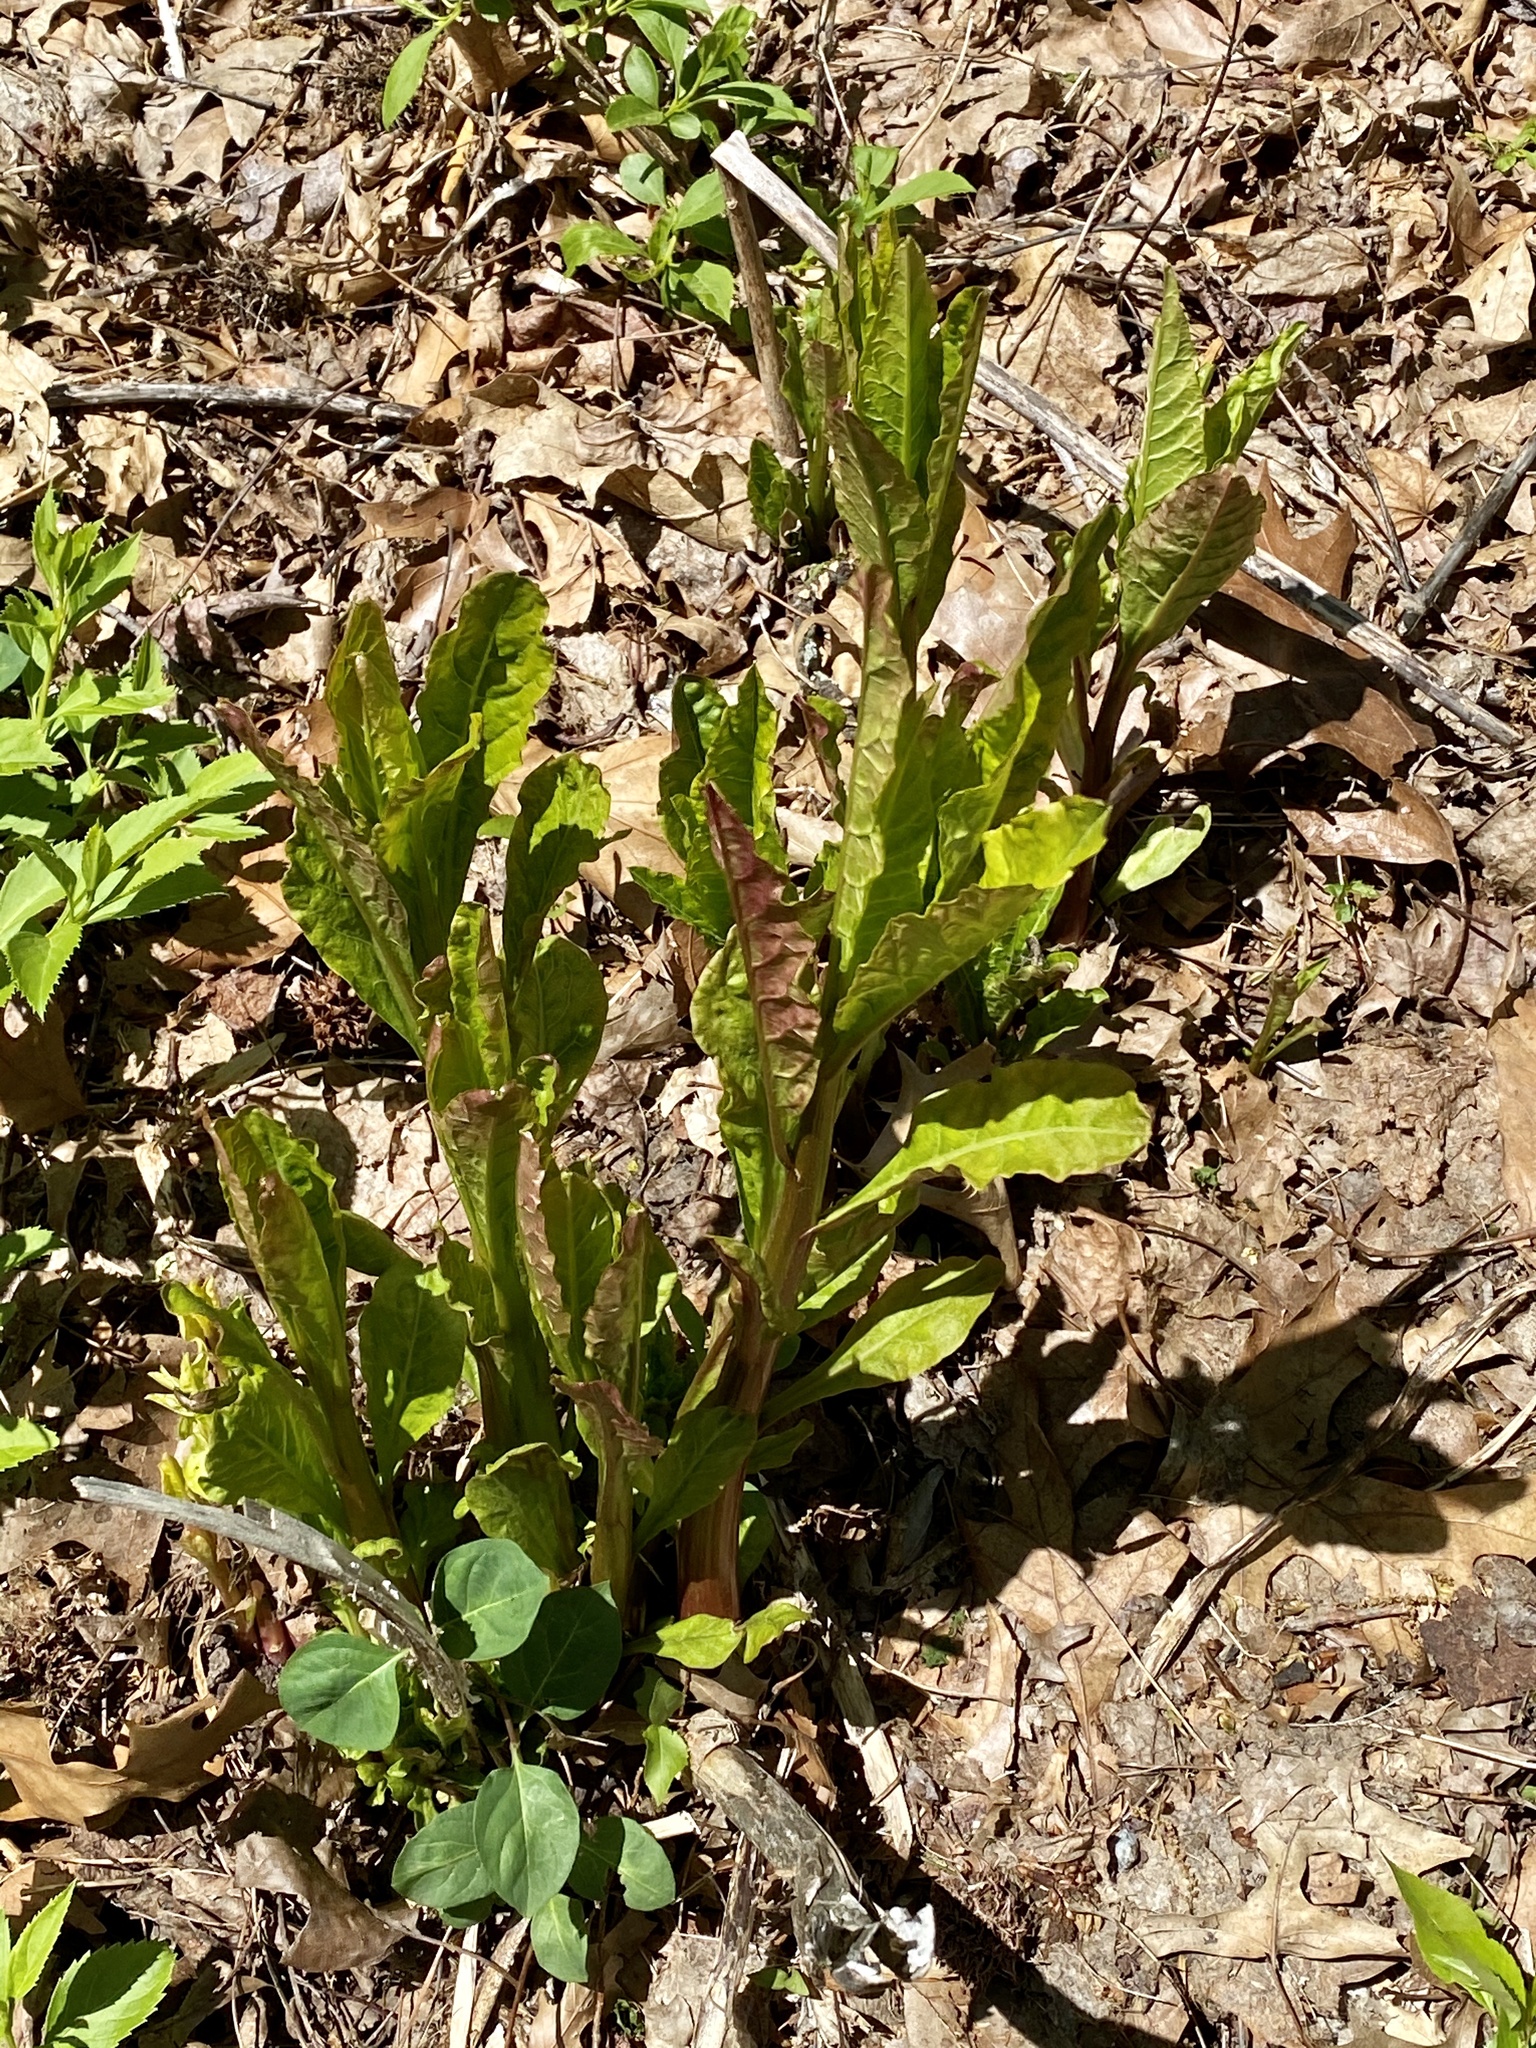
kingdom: Plantae
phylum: Tracheophyta
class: Magnoliopsida
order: Caryophyllales
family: Phytolaccaceae
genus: Phytolacca
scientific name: Phytolacca americana
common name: American pokeweed
